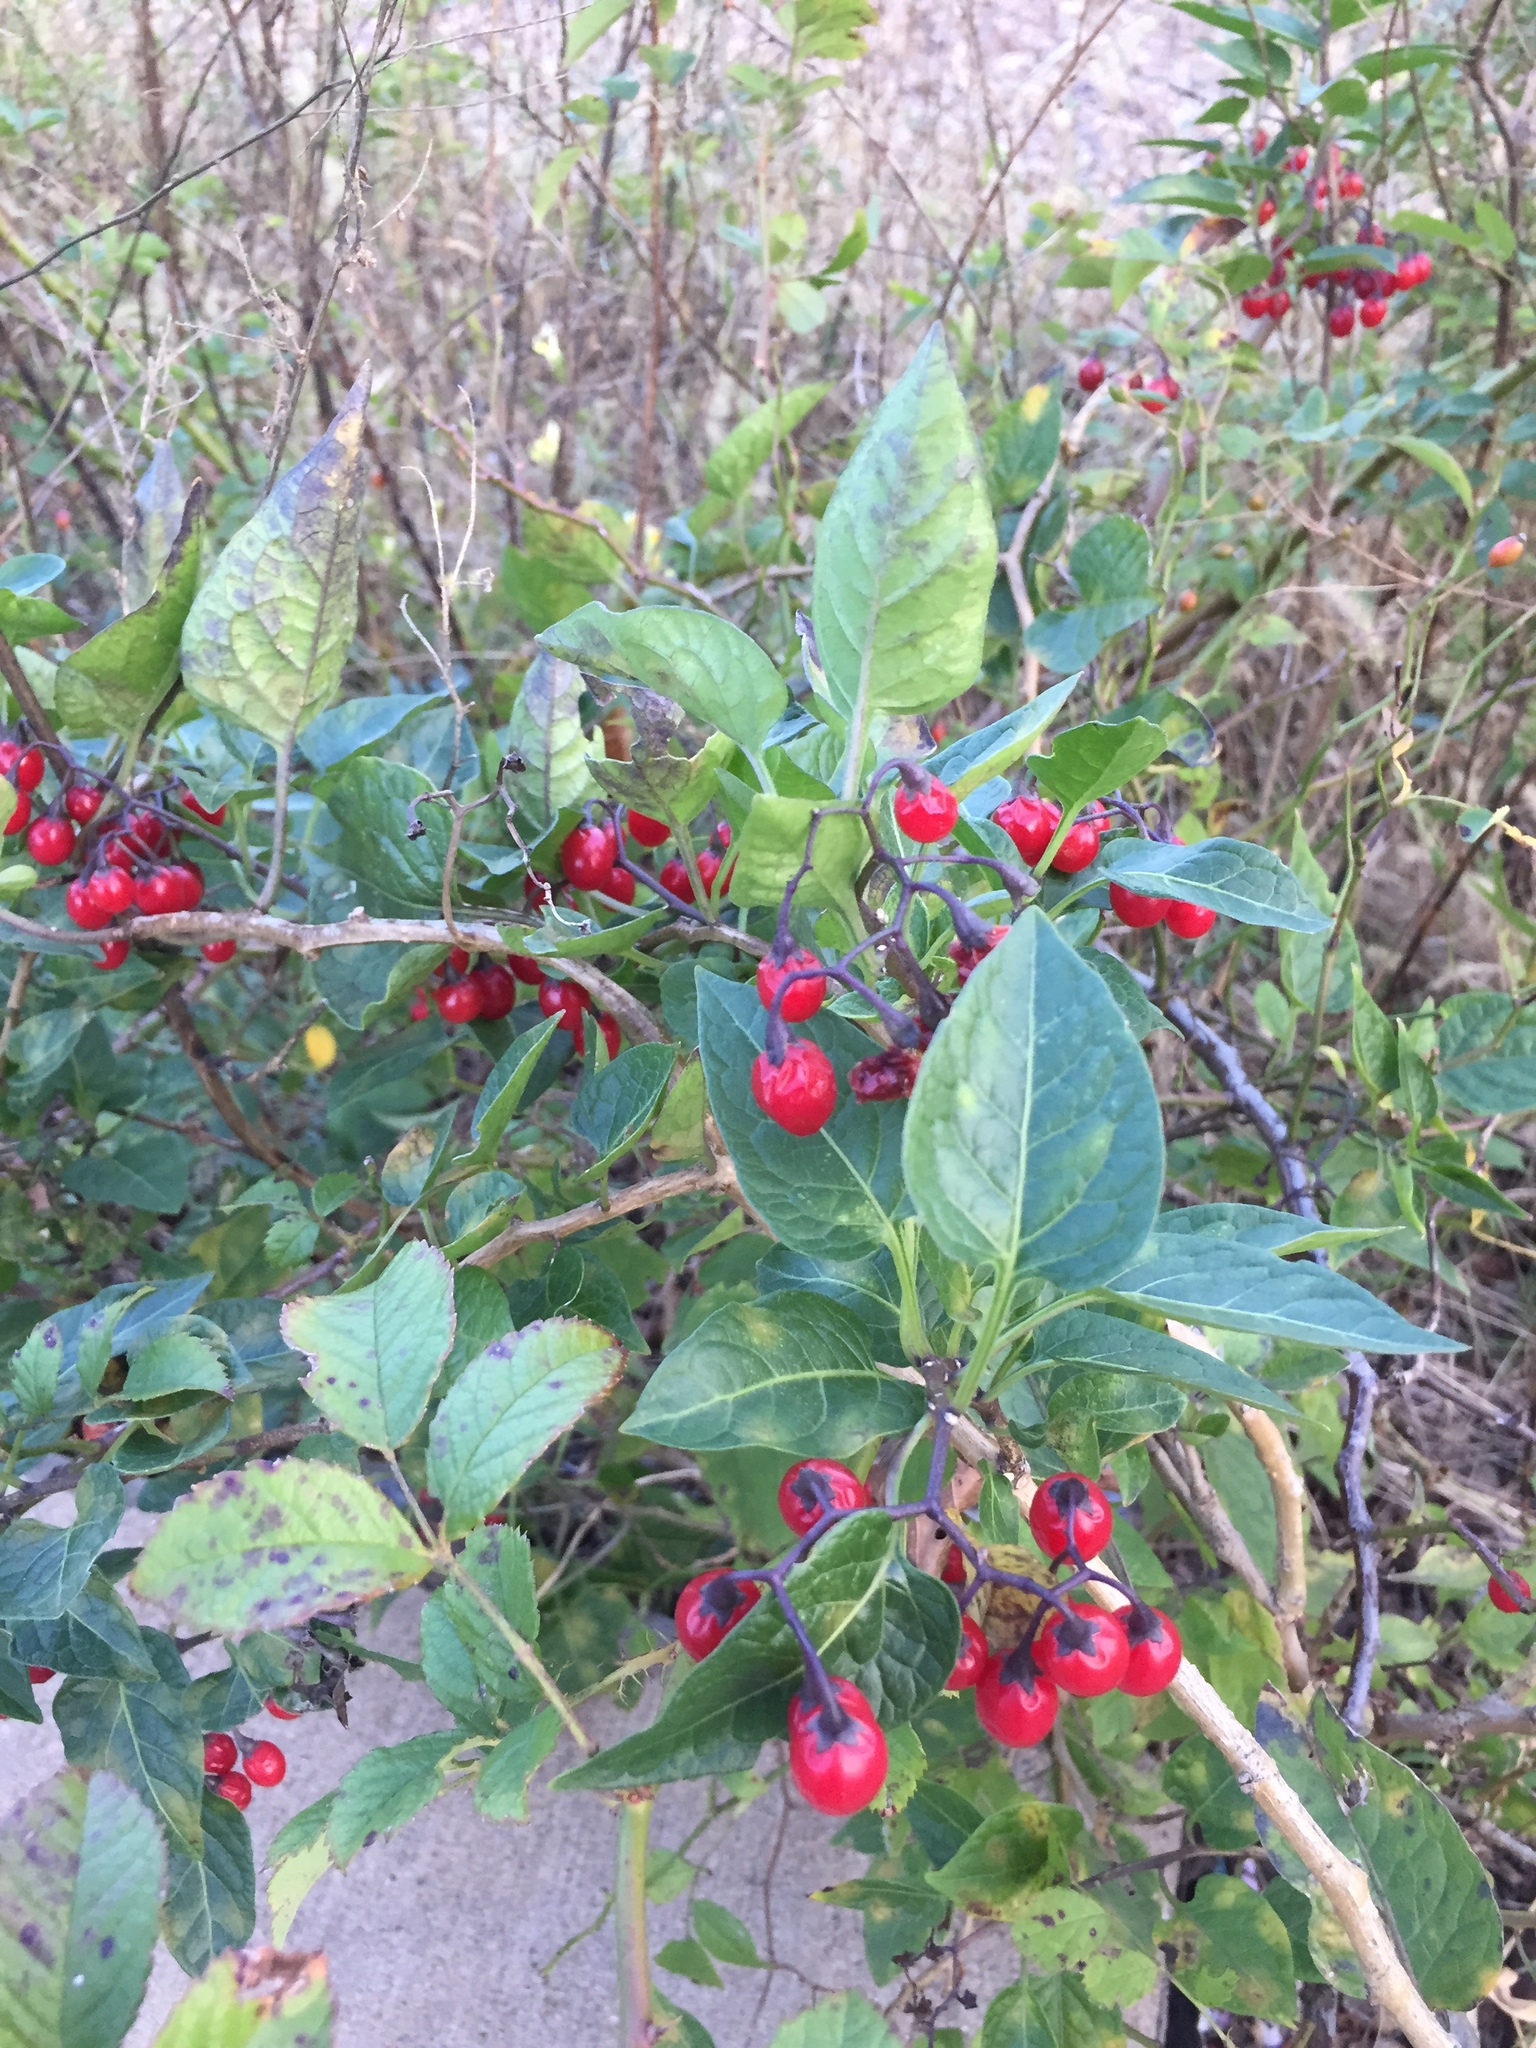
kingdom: Plantae
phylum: Tracheophyta
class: Magnoliopsida
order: Solanales
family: Solanaceae
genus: Solanum
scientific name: Solanum dulcamara
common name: Climbing nightshade
